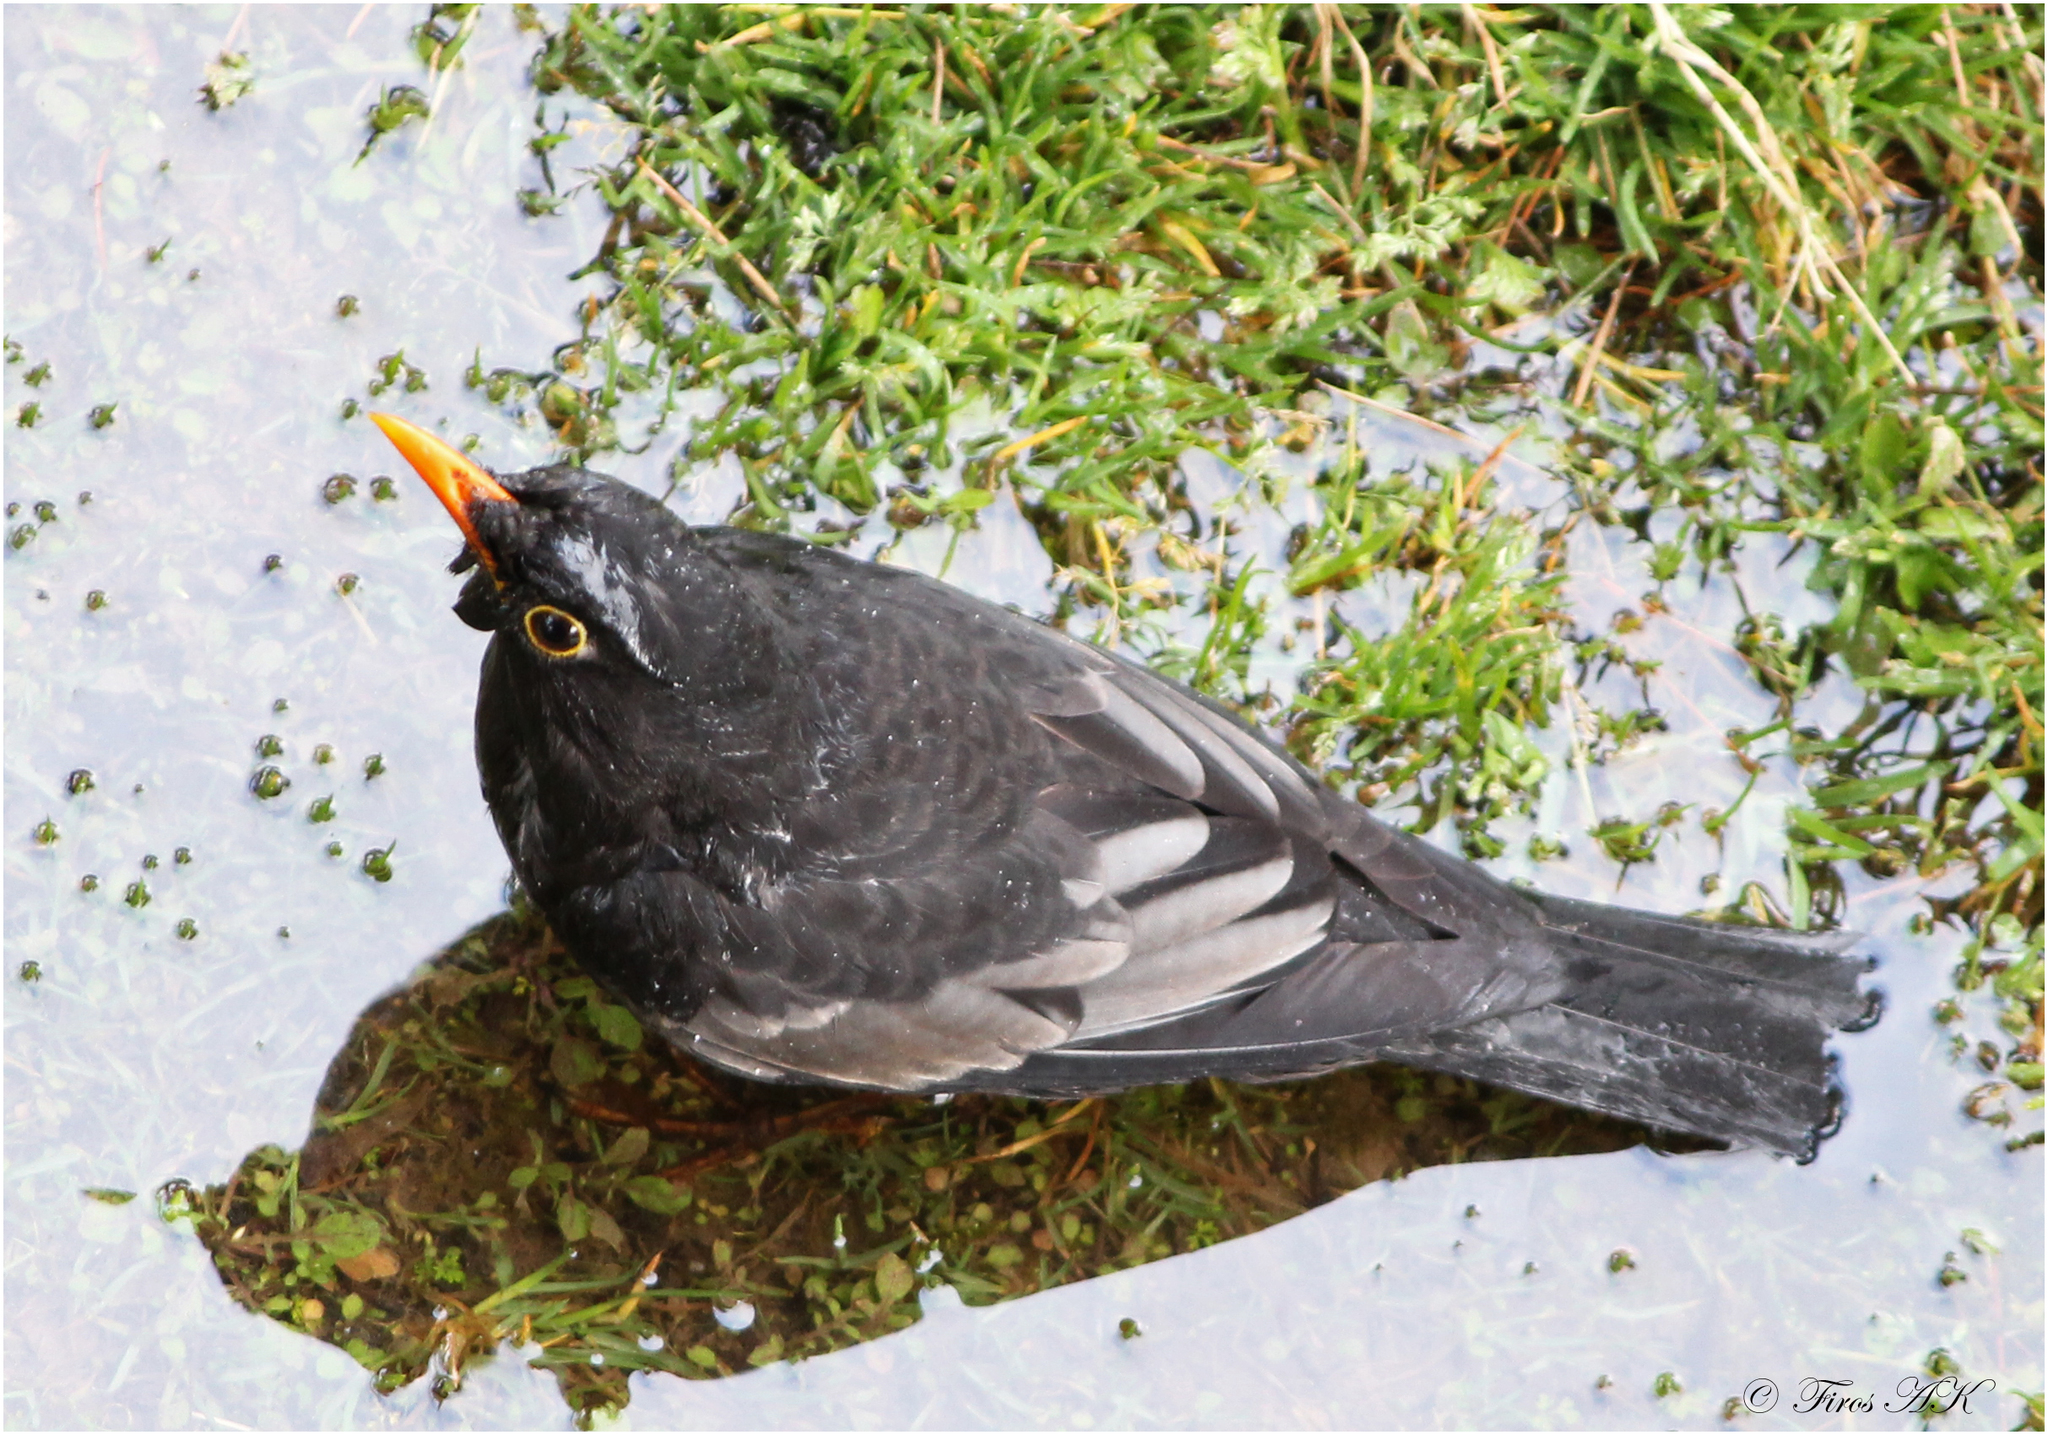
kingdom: Animalia
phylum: Chordata
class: Aves
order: Passeriformes
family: Turdidae
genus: Turdus
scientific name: Turdus boulboul
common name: Grey-winged blackbird
